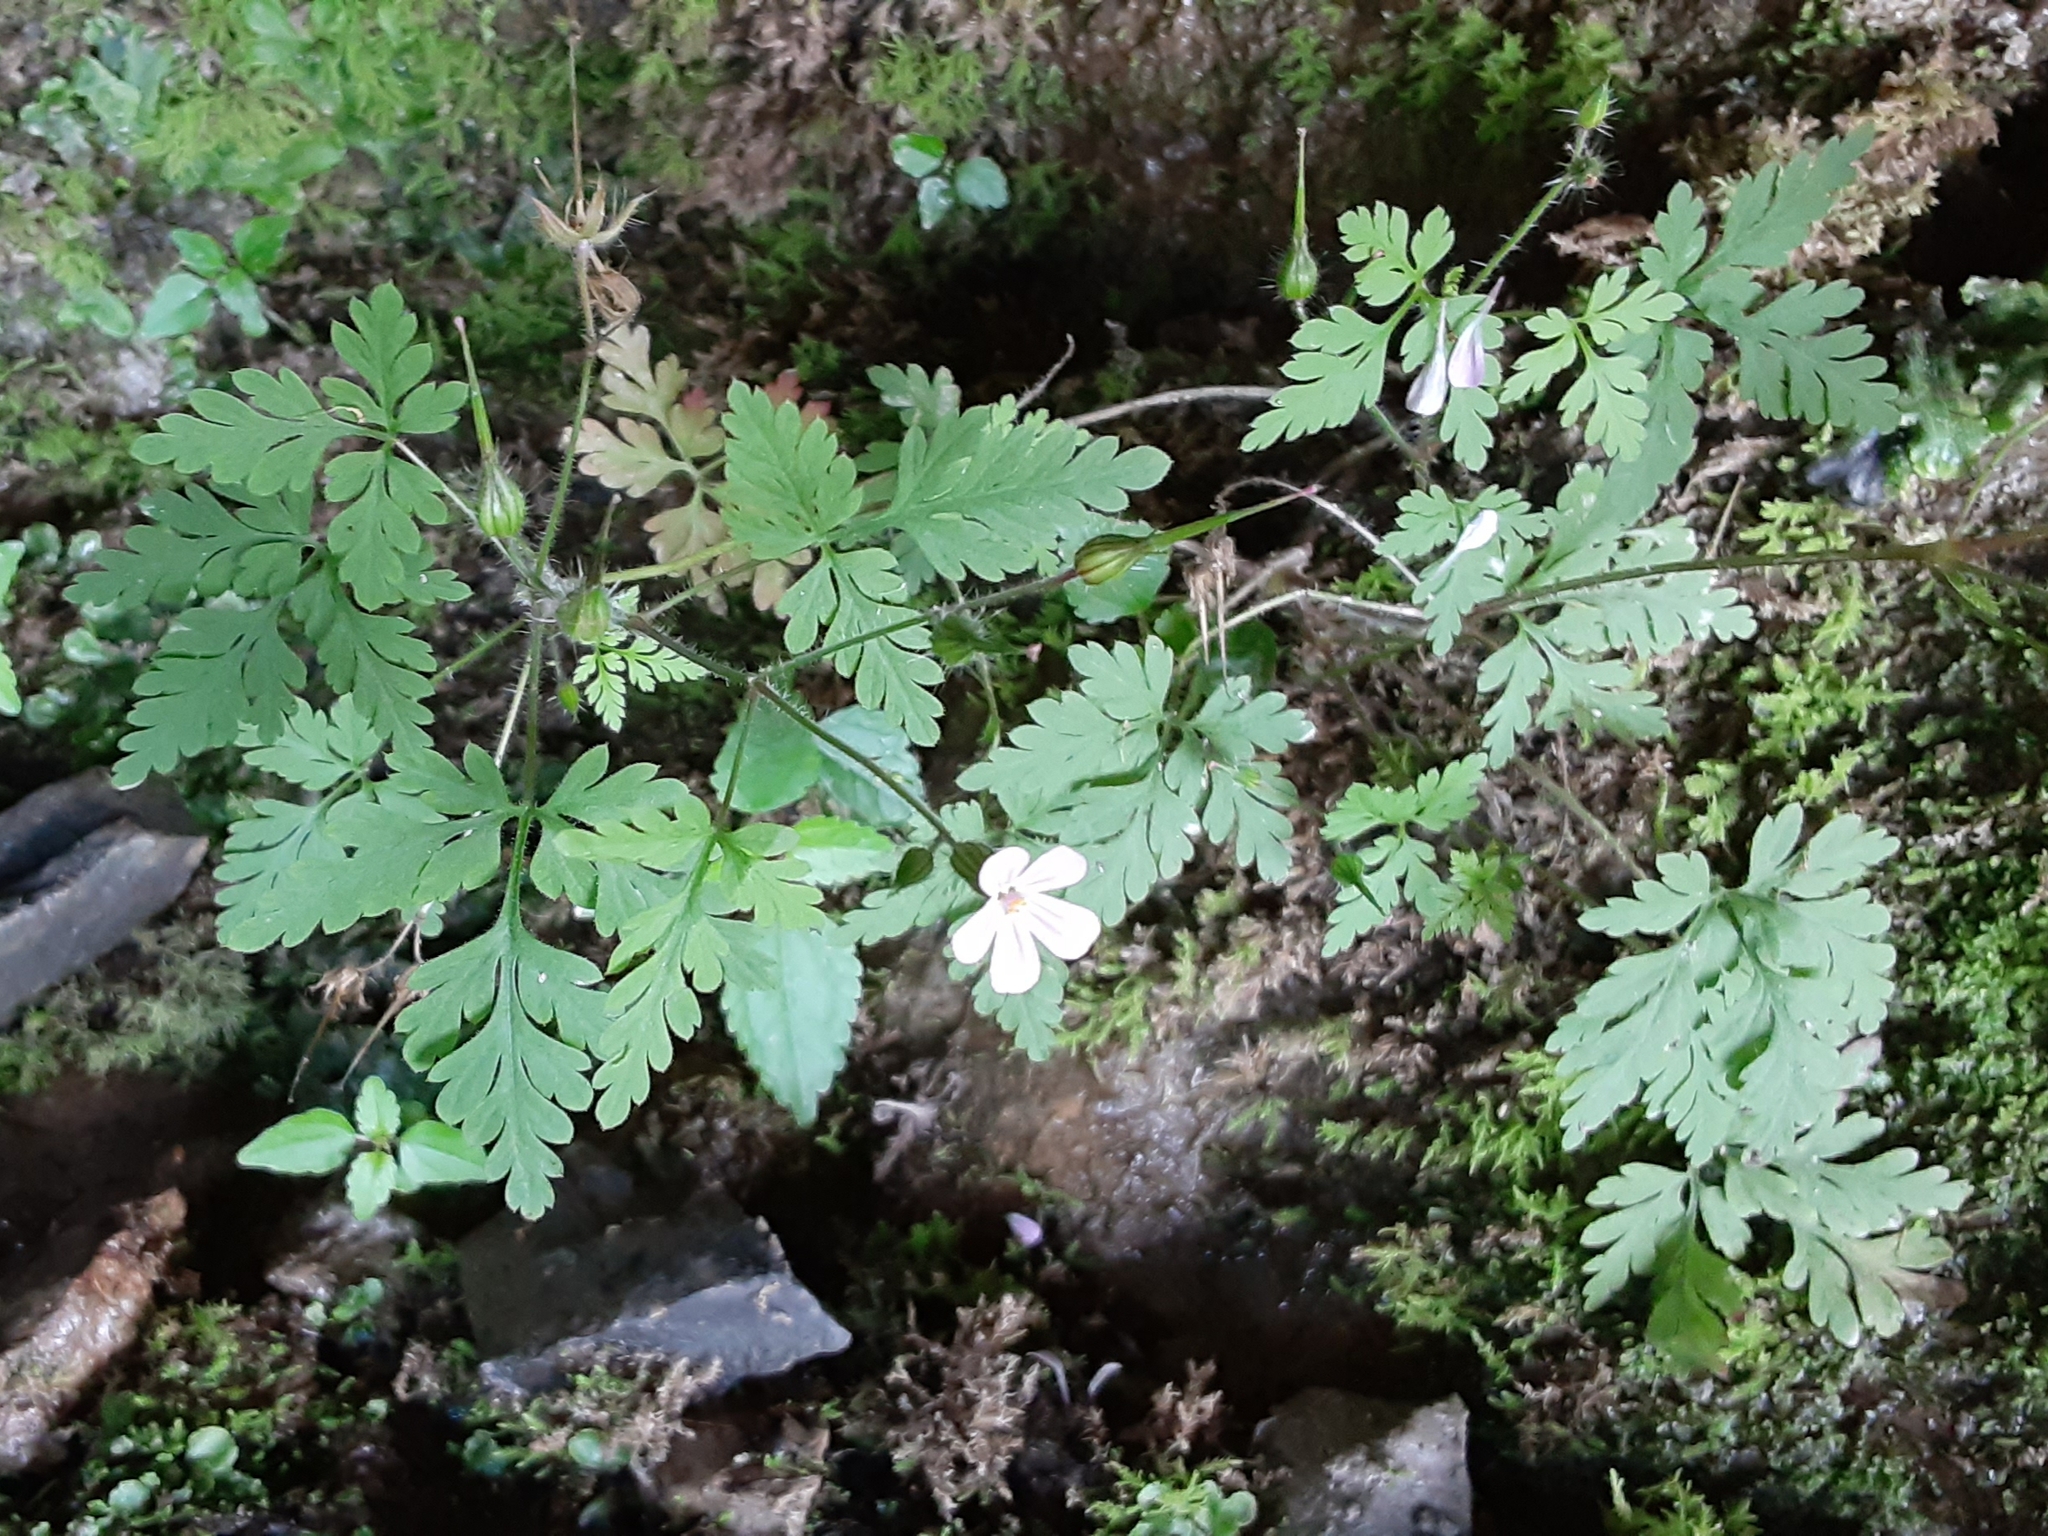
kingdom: Plantae
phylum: Tracheophyta
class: Magnoliopsida
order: Geraniales
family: Geraniaceae
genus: Geranium
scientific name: Geranium robertianum
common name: Herb-robert
